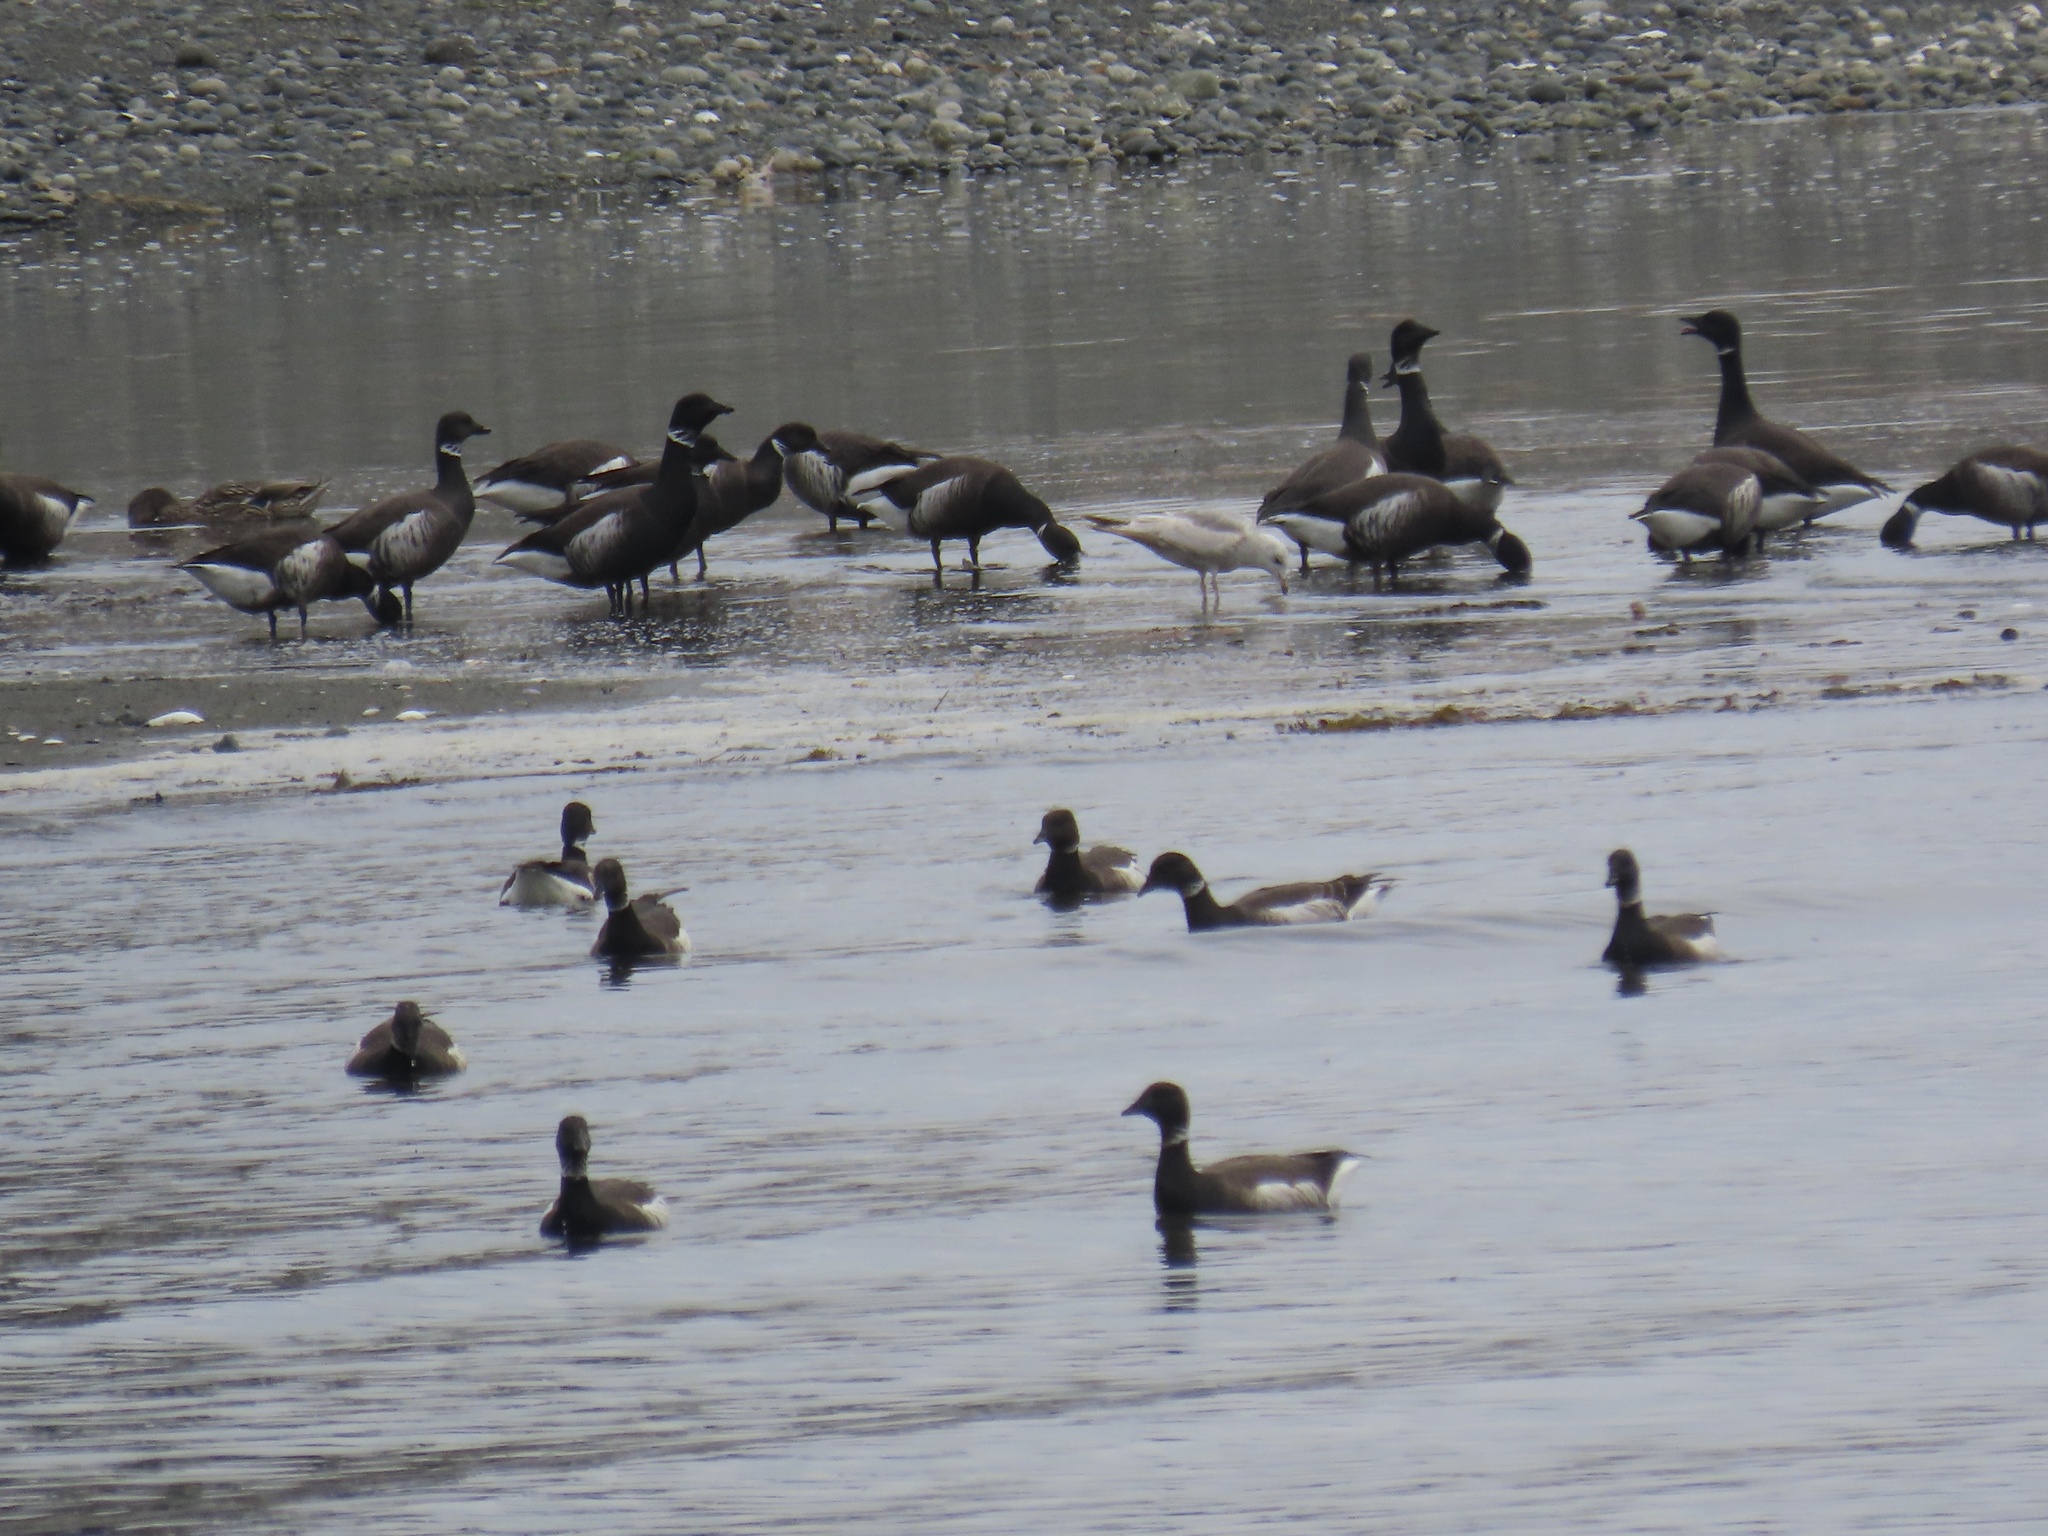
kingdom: Animalia
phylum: Chordata
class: Aves
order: Anseriformes
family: Anatidae
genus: Branta
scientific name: Branta bernicla
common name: Brant goose
